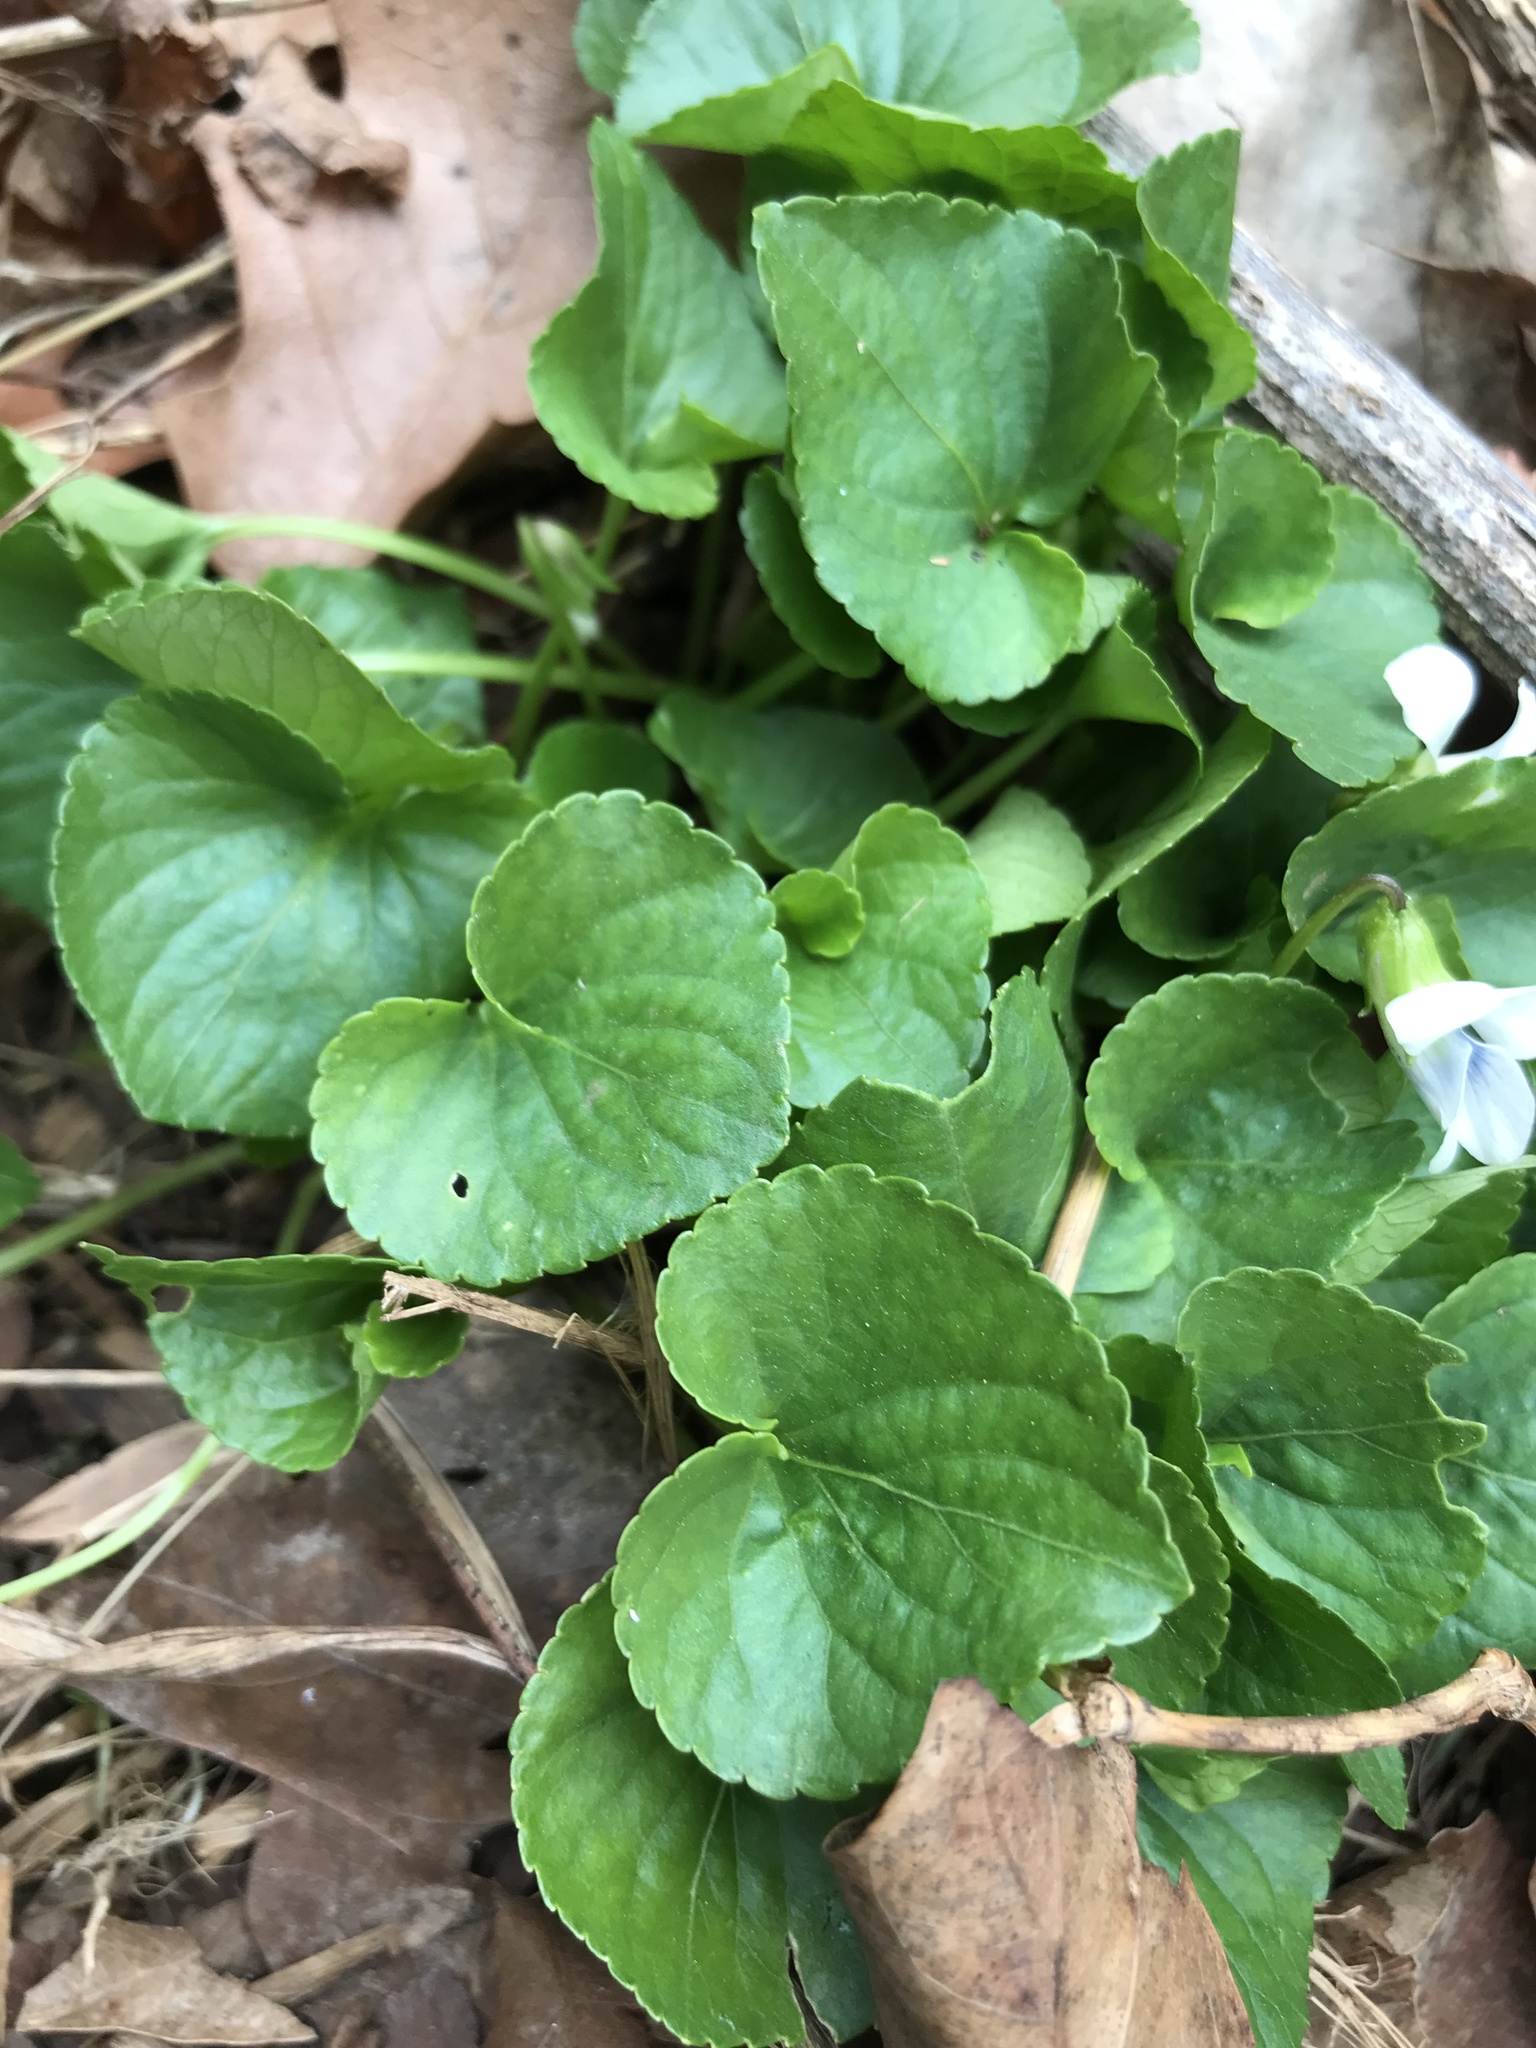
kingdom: Plantae
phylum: Tracheophyta
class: Magnoliopsida
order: Malpighiales
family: Violaceae
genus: Viola
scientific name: Viola sororia
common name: Dooryard violet
